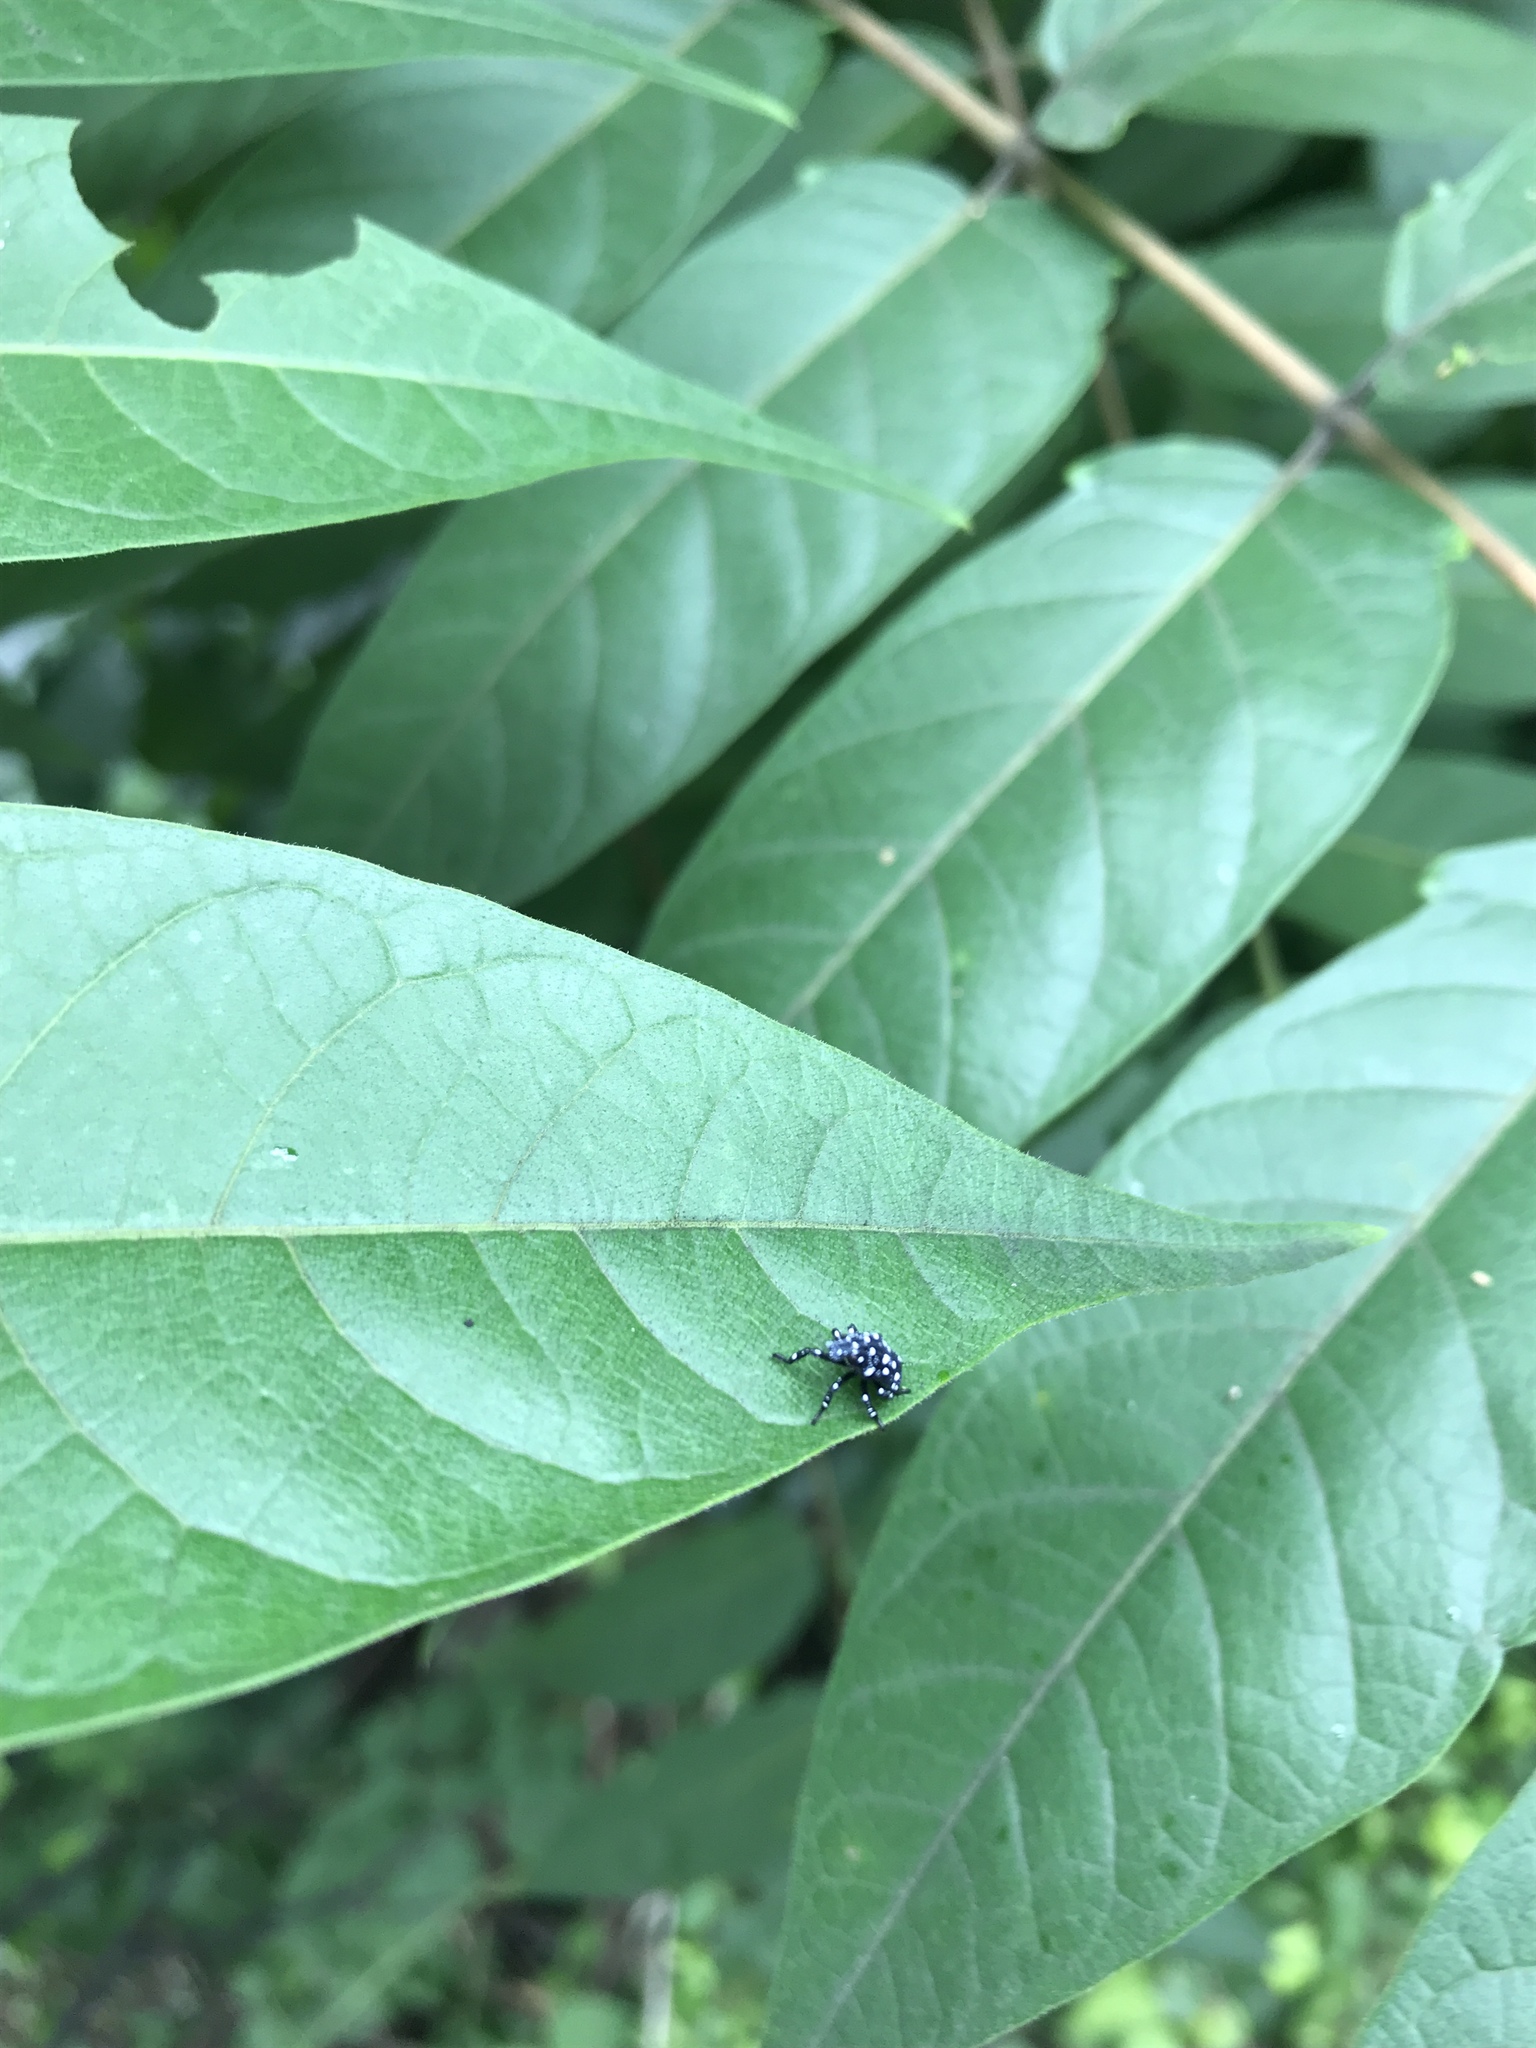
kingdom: Animalia
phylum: Arthropoda
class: Insecta
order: Hemiptera
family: Fulgoridae
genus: Lycorma
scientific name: Lycorma delicatula
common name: Spotted lanternfly
